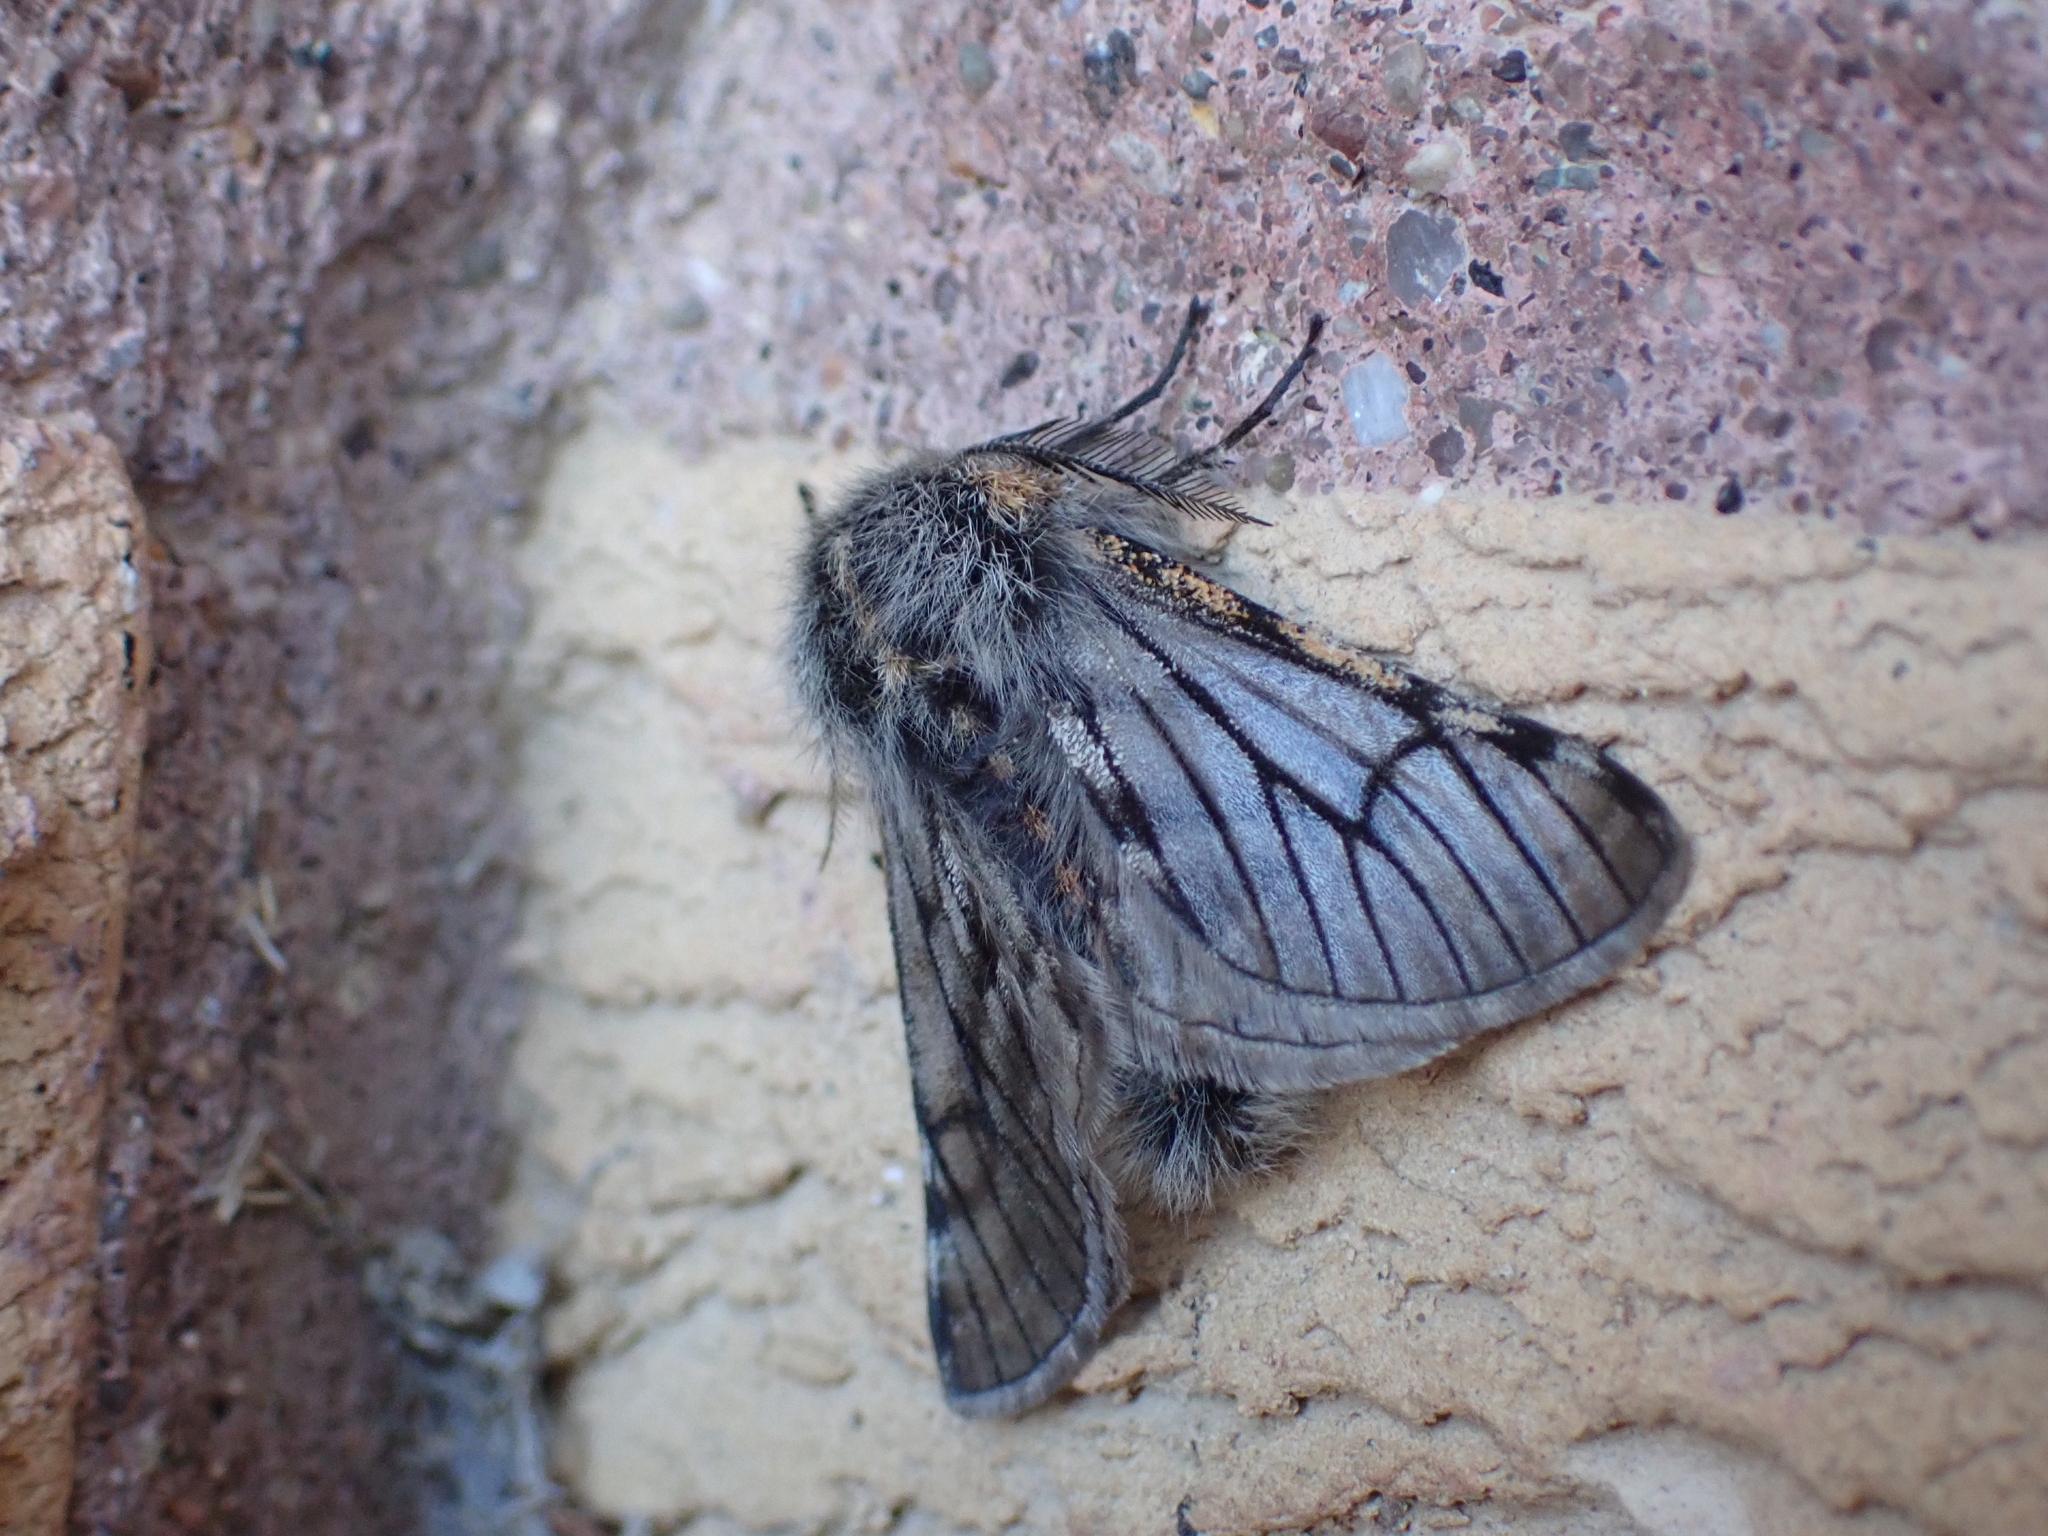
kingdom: Animalia
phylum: Arthropoda
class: Insecta
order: Lepidoptera
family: Geometridae
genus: Lycia
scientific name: Lycia rachelae
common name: Twilight moth
